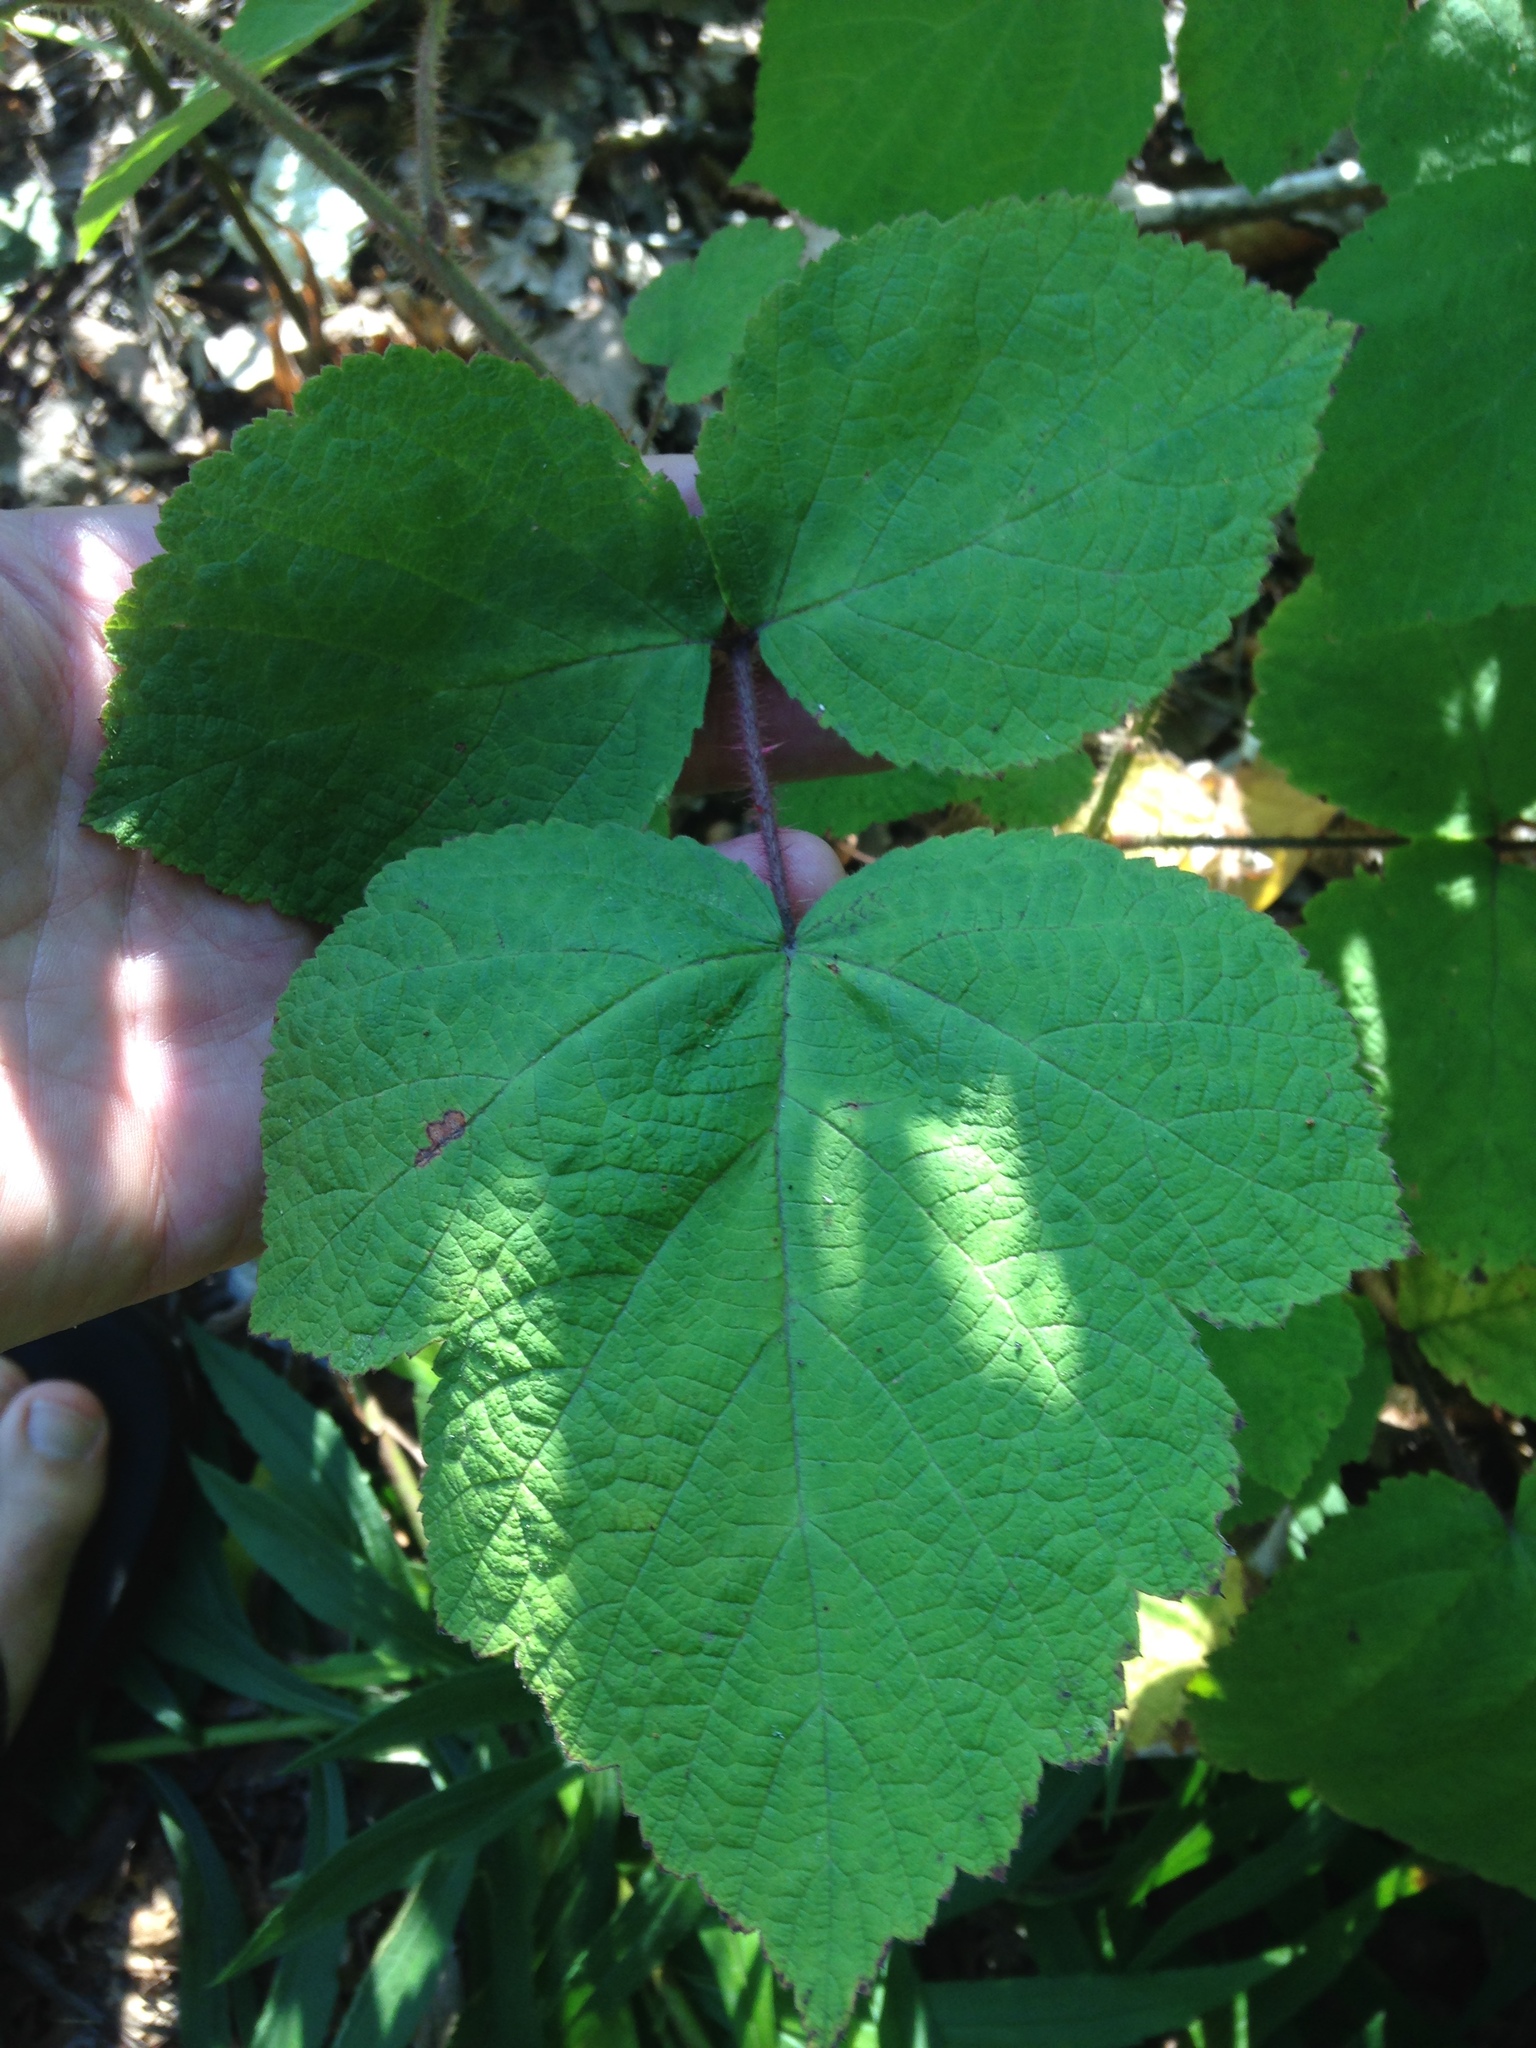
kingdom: Plantae
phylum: Tracheophyta
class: Magnoliopsida
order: Rosales
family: Rosaceae
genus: Rubus
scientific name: Rubus phoenicolasius
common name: Japanese wineberry
